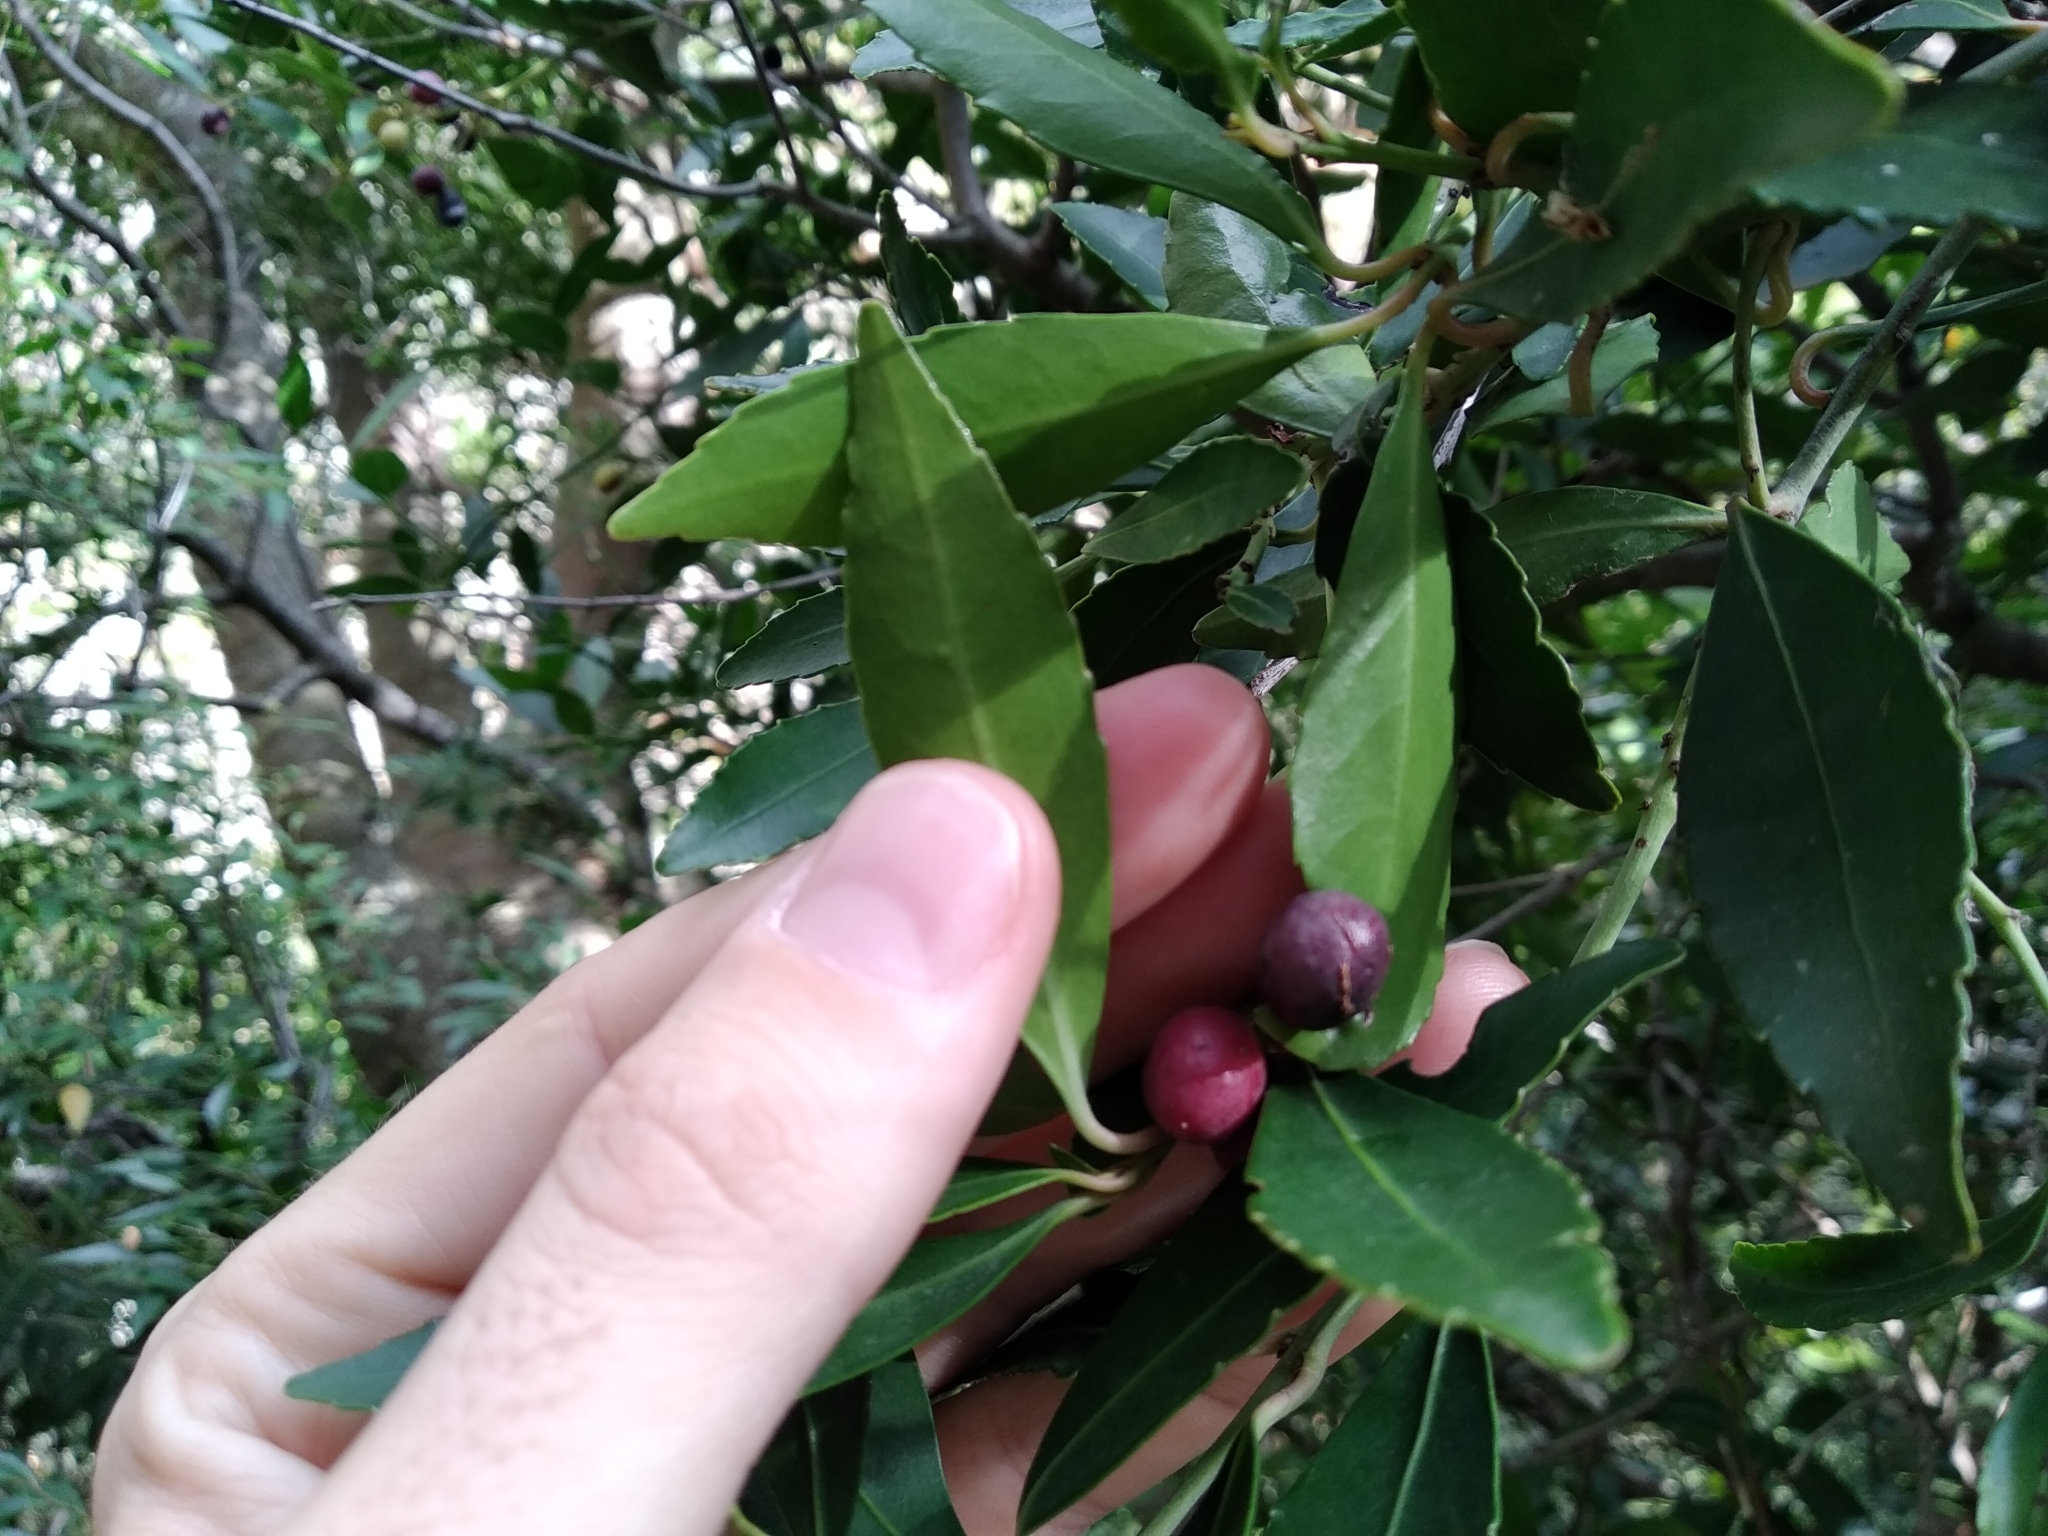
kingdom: Plantae
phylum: Tracheophyta
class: Magnoliopsida
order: Celastrales
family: Celastraceae
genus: Elaeodendron
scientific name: Elaeodendron schinoides
